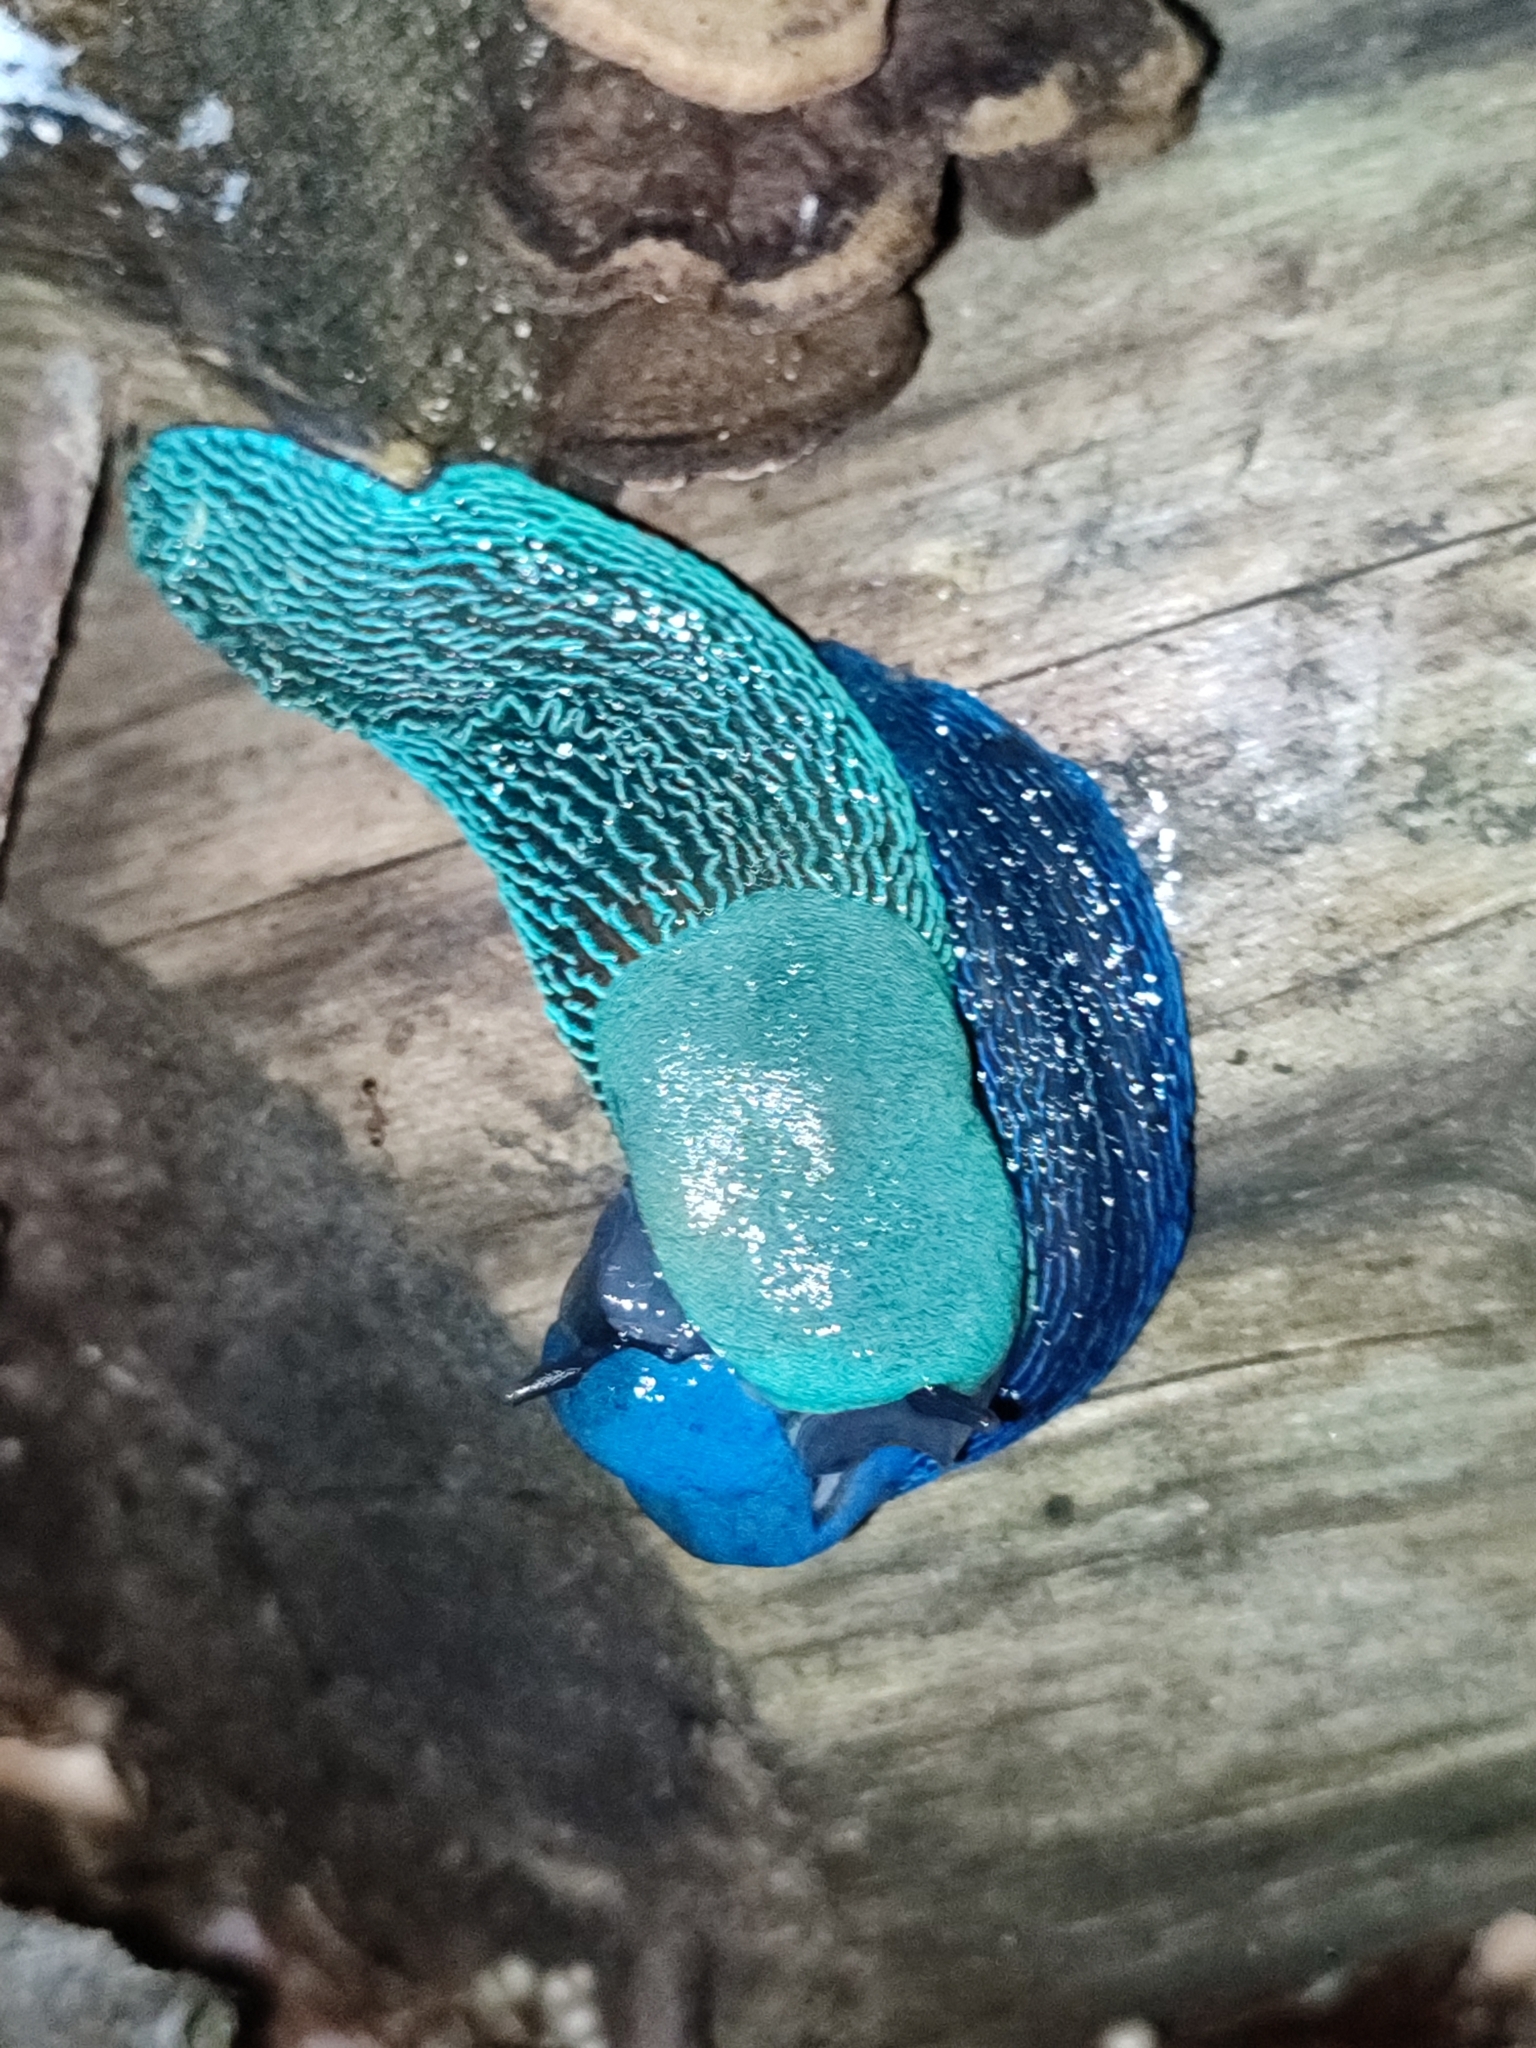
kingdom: Animalia
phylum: Mollusca
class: Gastropoda
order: Stylommatophora
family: Limacidae
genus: Bielzia
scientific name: Bielzia coerulans
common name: Carpathian blue slug
